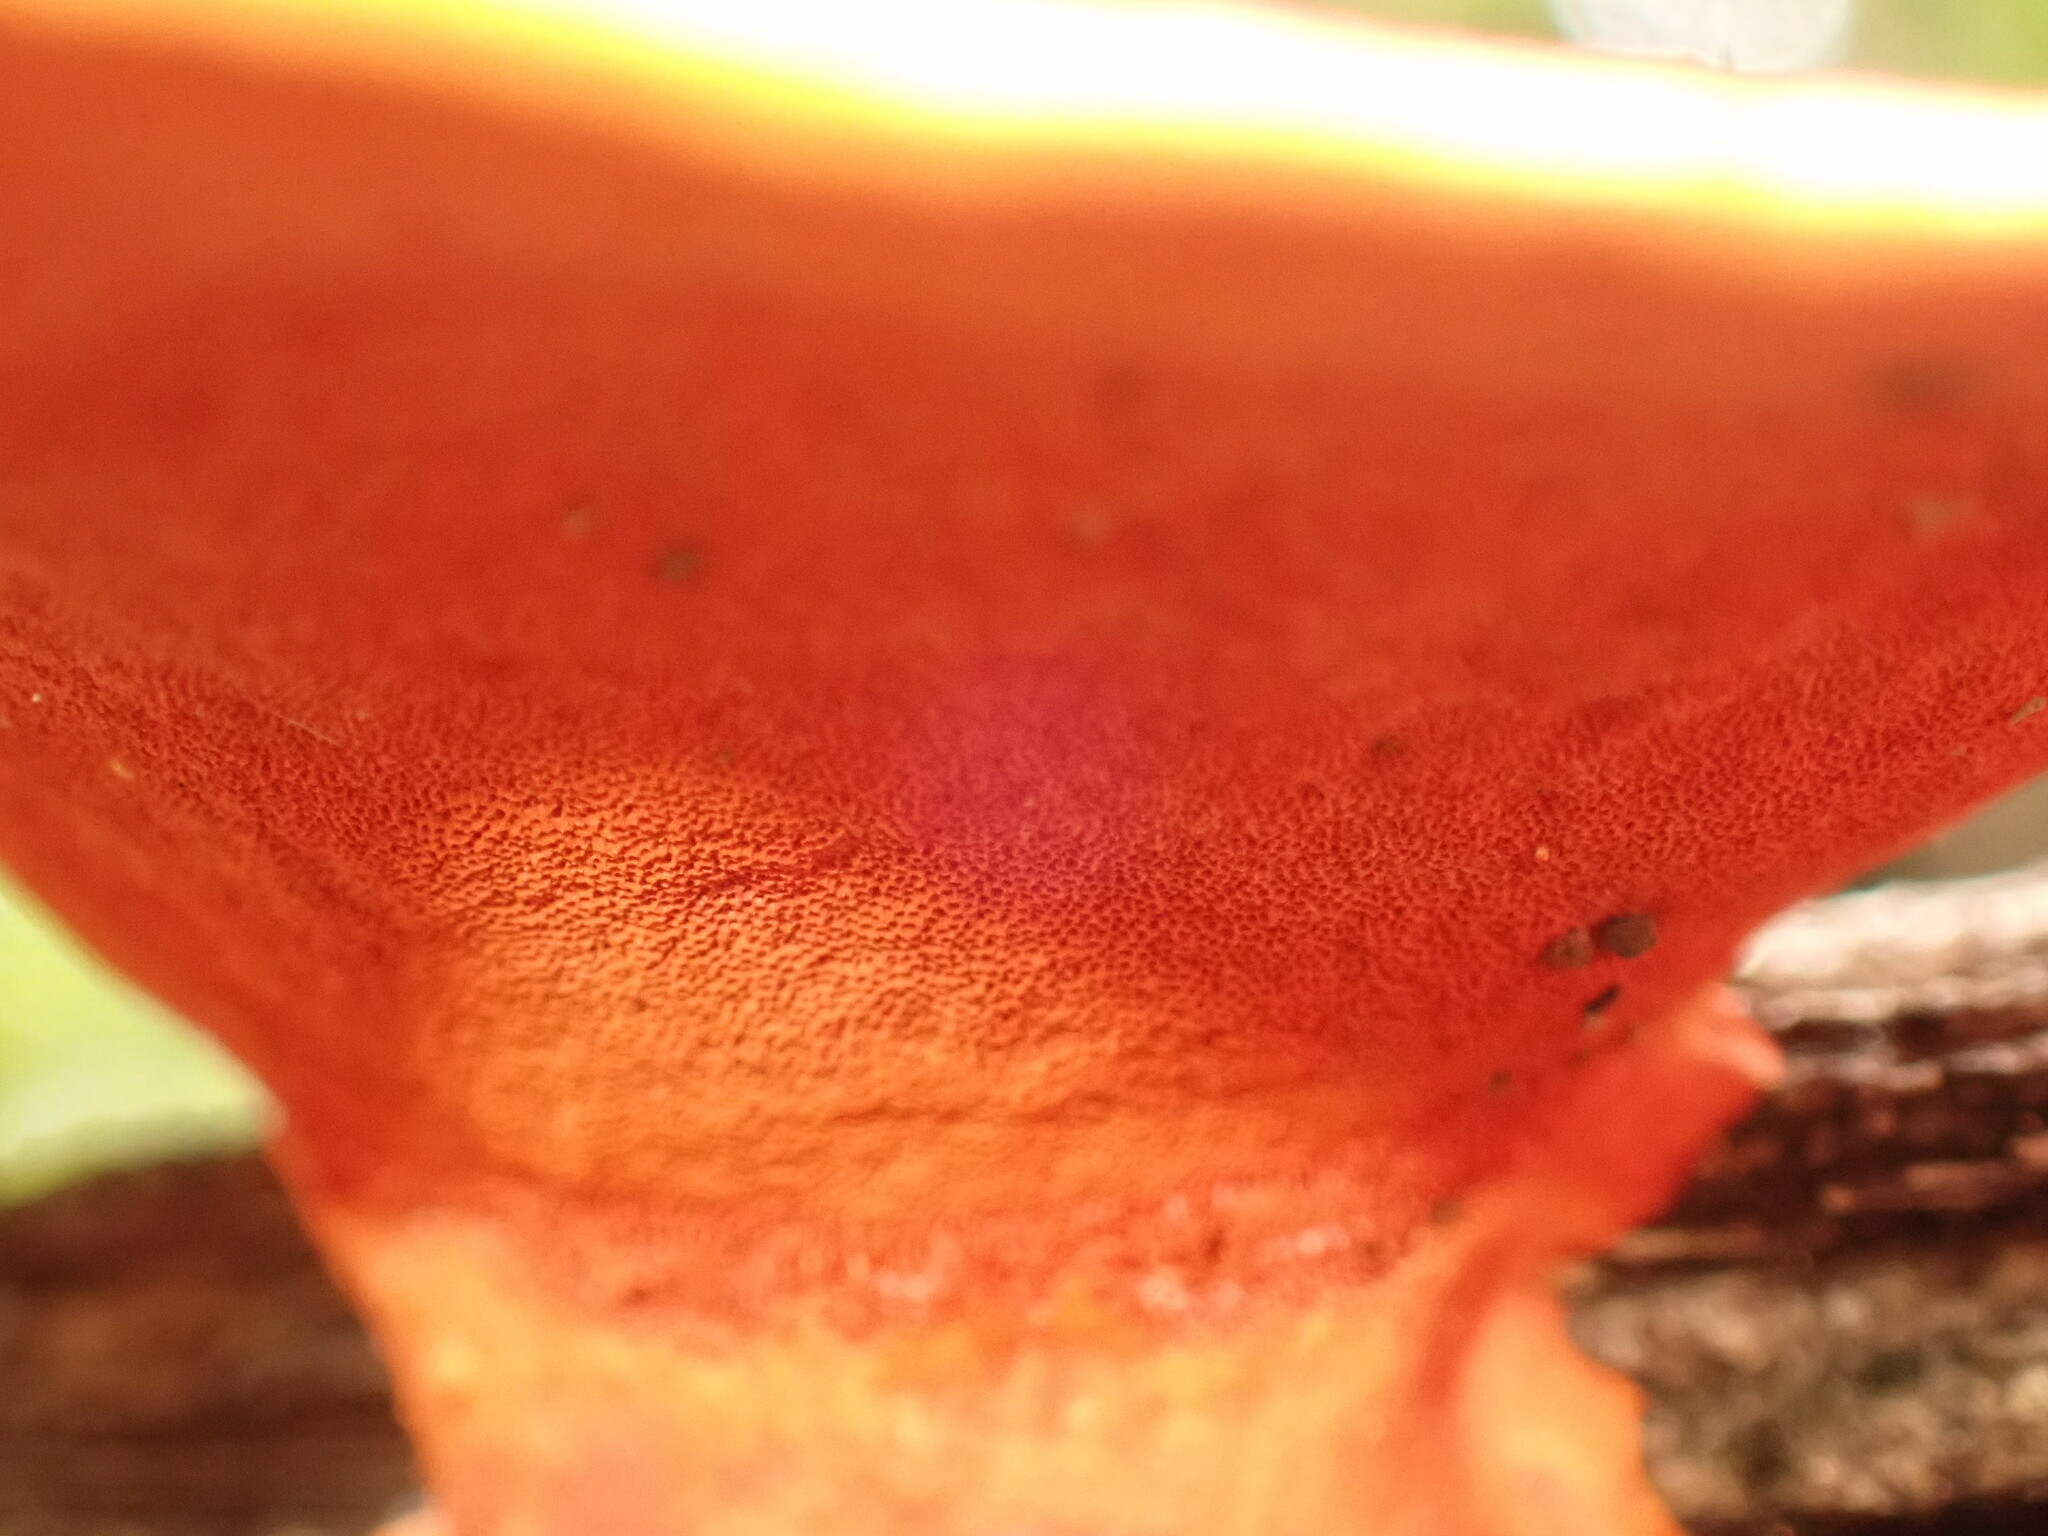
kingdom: Fungi
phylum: Basidiomycota
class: Agaricomycetes
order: Polyporales
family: Polyporaceae
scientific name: Polyporaceae
